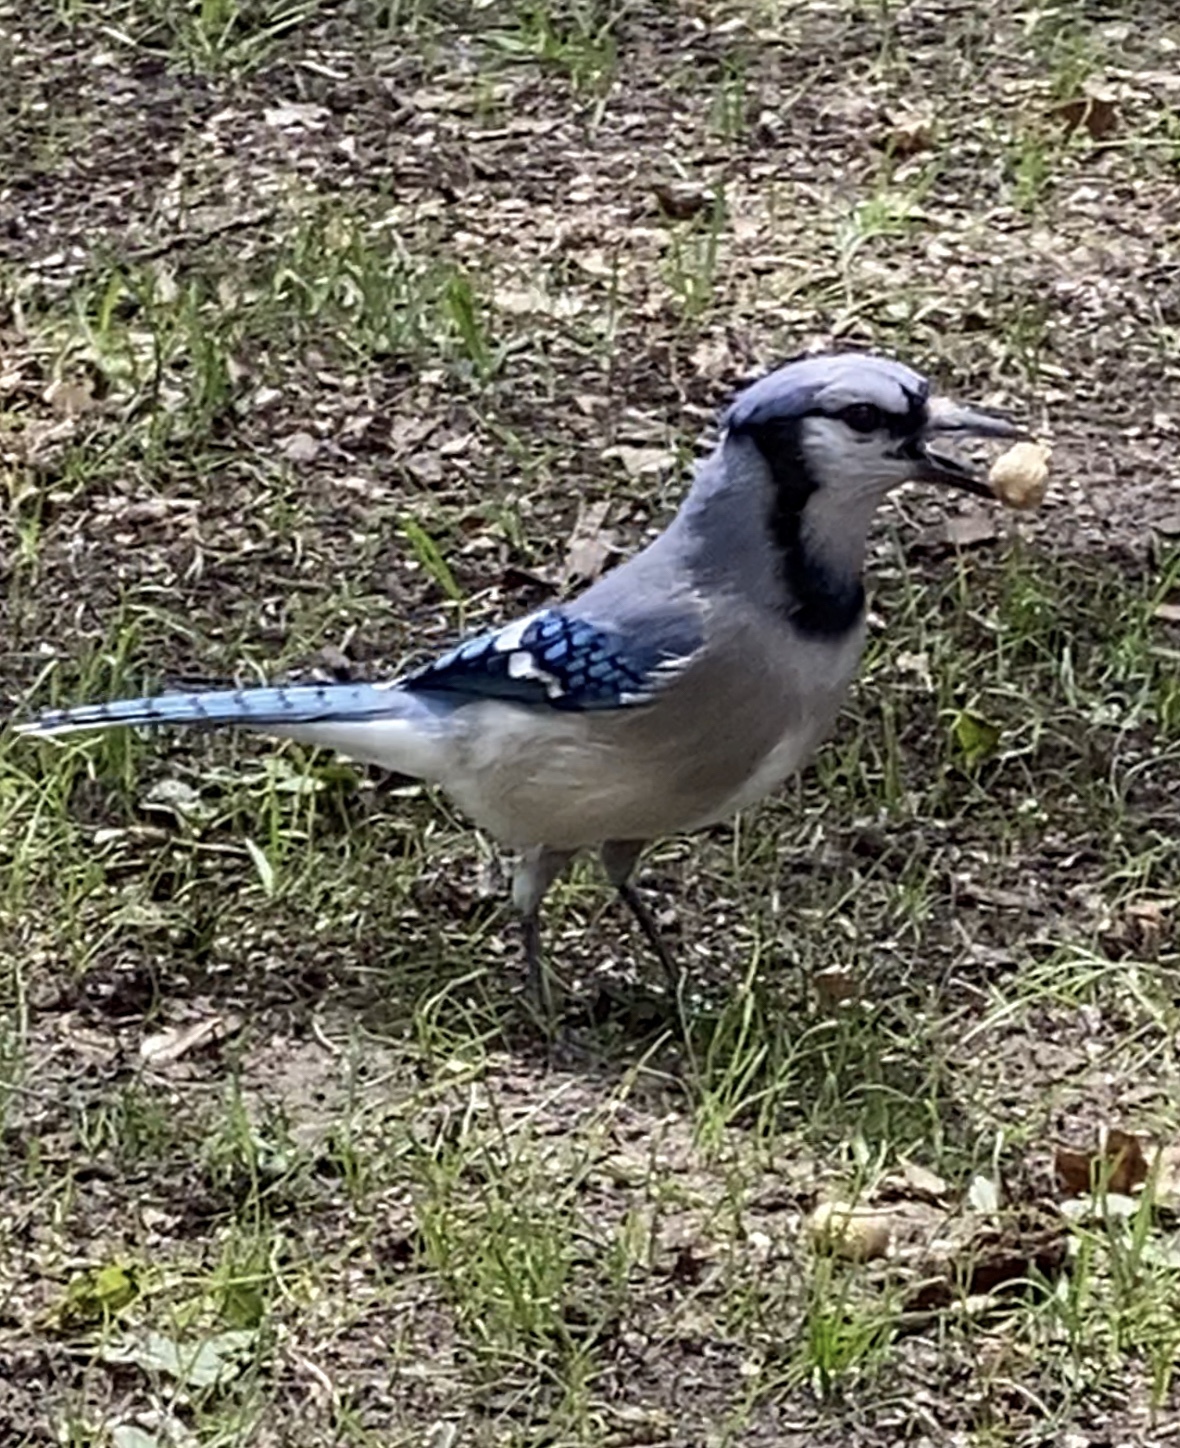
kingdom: Animalia
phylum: Chordata
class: Aves
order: Passeriformes
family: Corvidae
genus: Cyanocitta
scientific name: Cyanocitta cristata
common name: Blue jay
